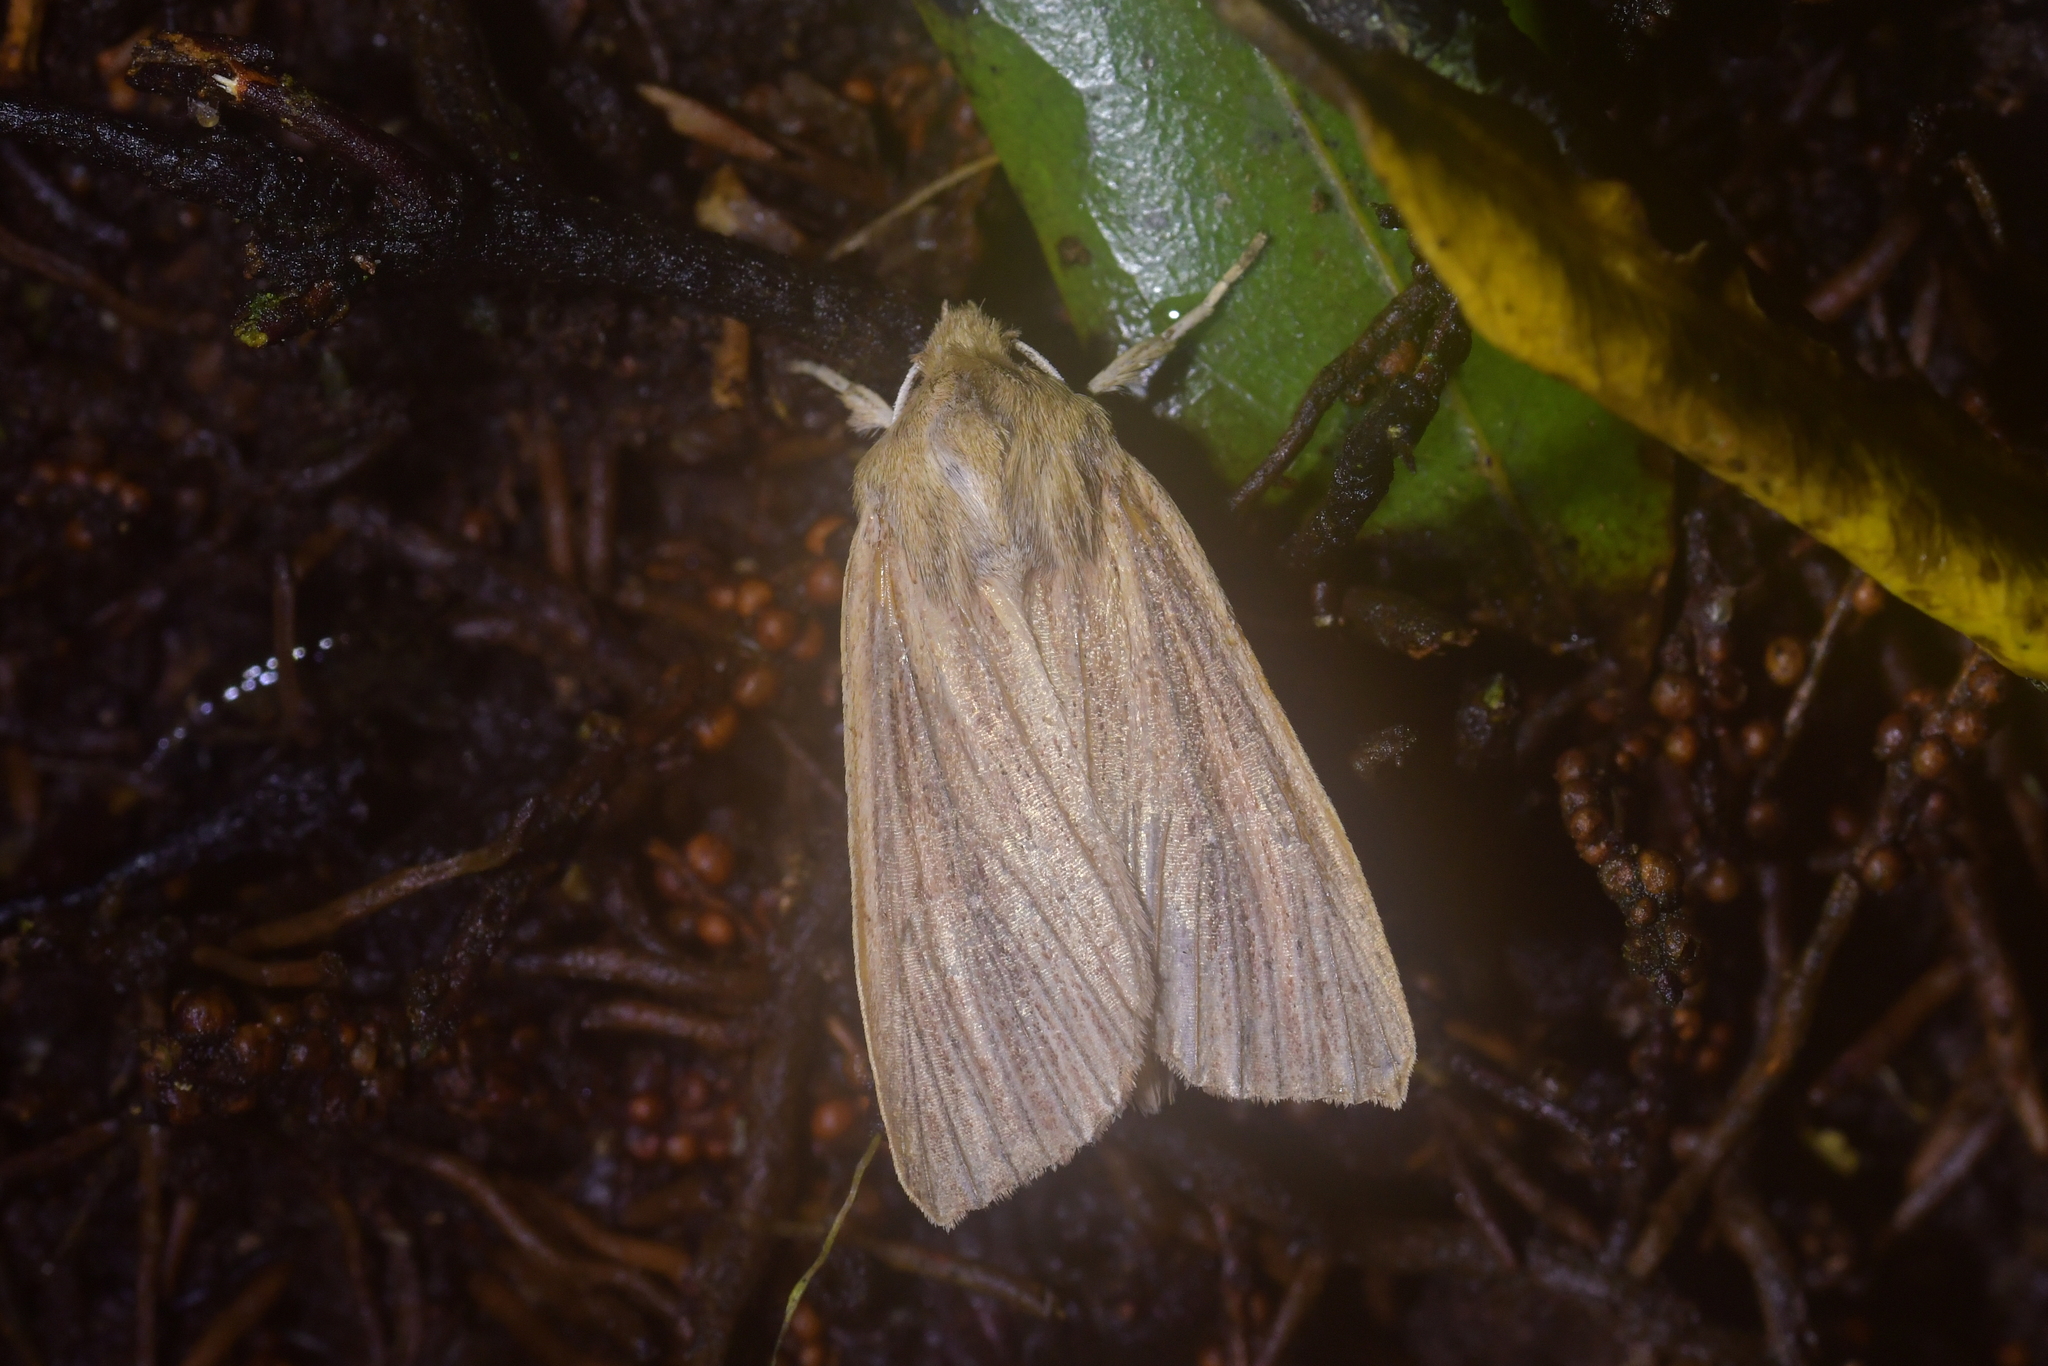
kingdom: Animalia
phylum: Arthropoda
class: Insecta
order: Lepidoptera
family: Noctuidae
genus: Ichneutica
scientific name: Ichneutica arotis
